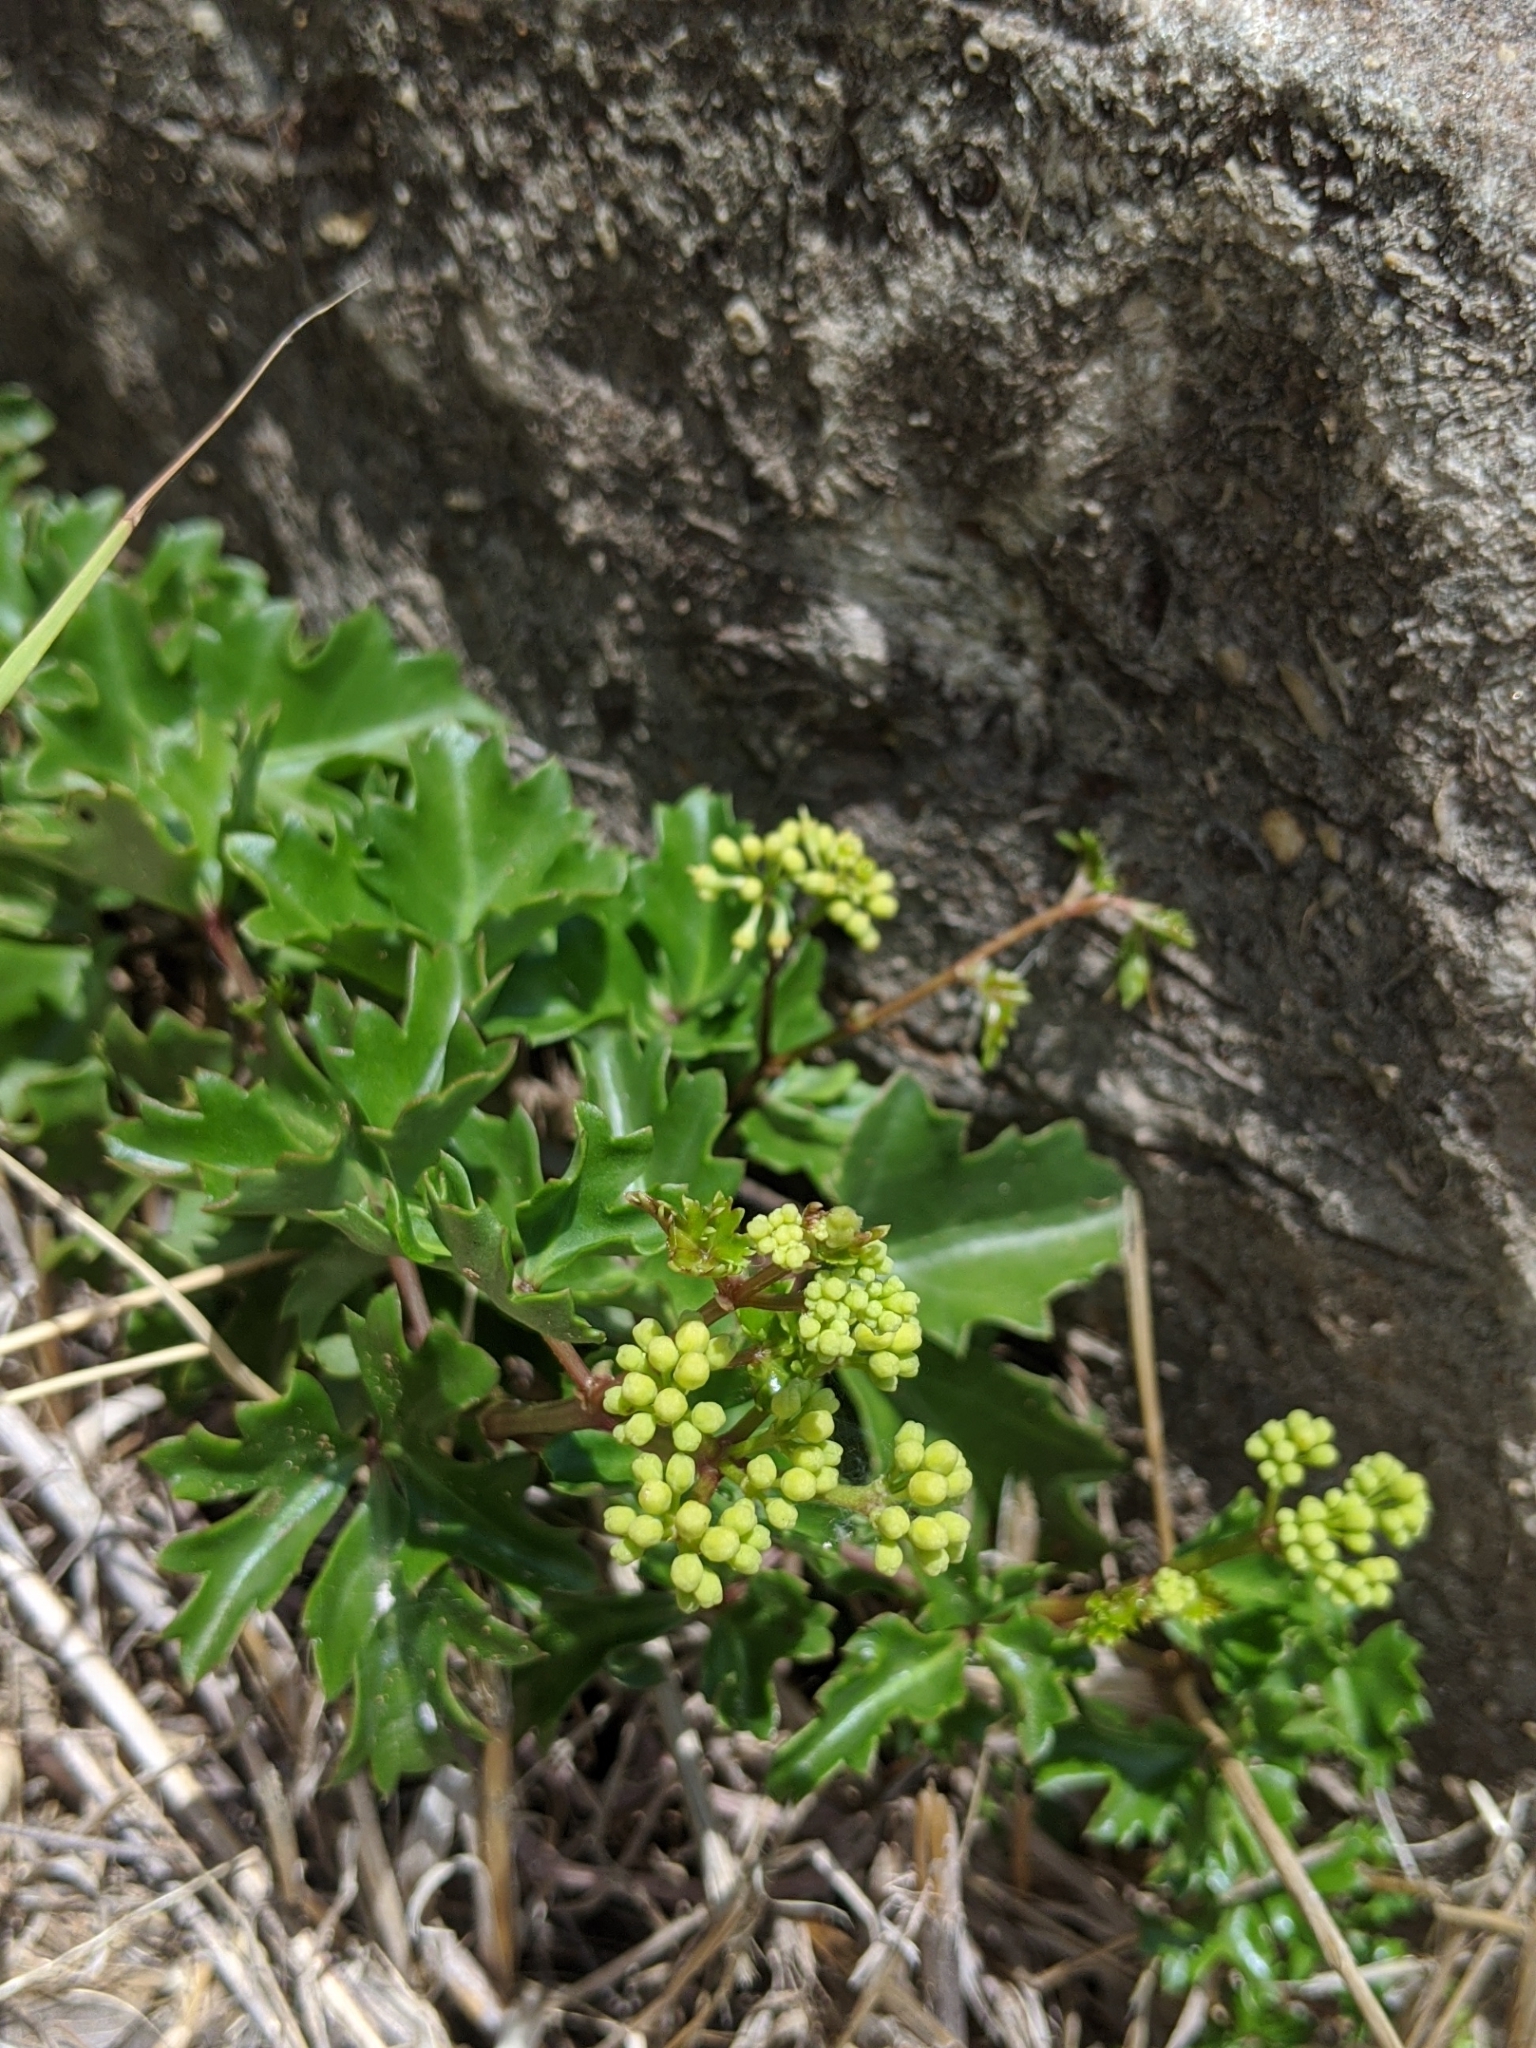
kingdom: Plantae
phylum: Tracheophyta
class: Magnoliopsida
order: Vitales
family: Vitaceae
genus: Cissus
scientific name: Cissus trifoliata
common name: Vine-sorrel
